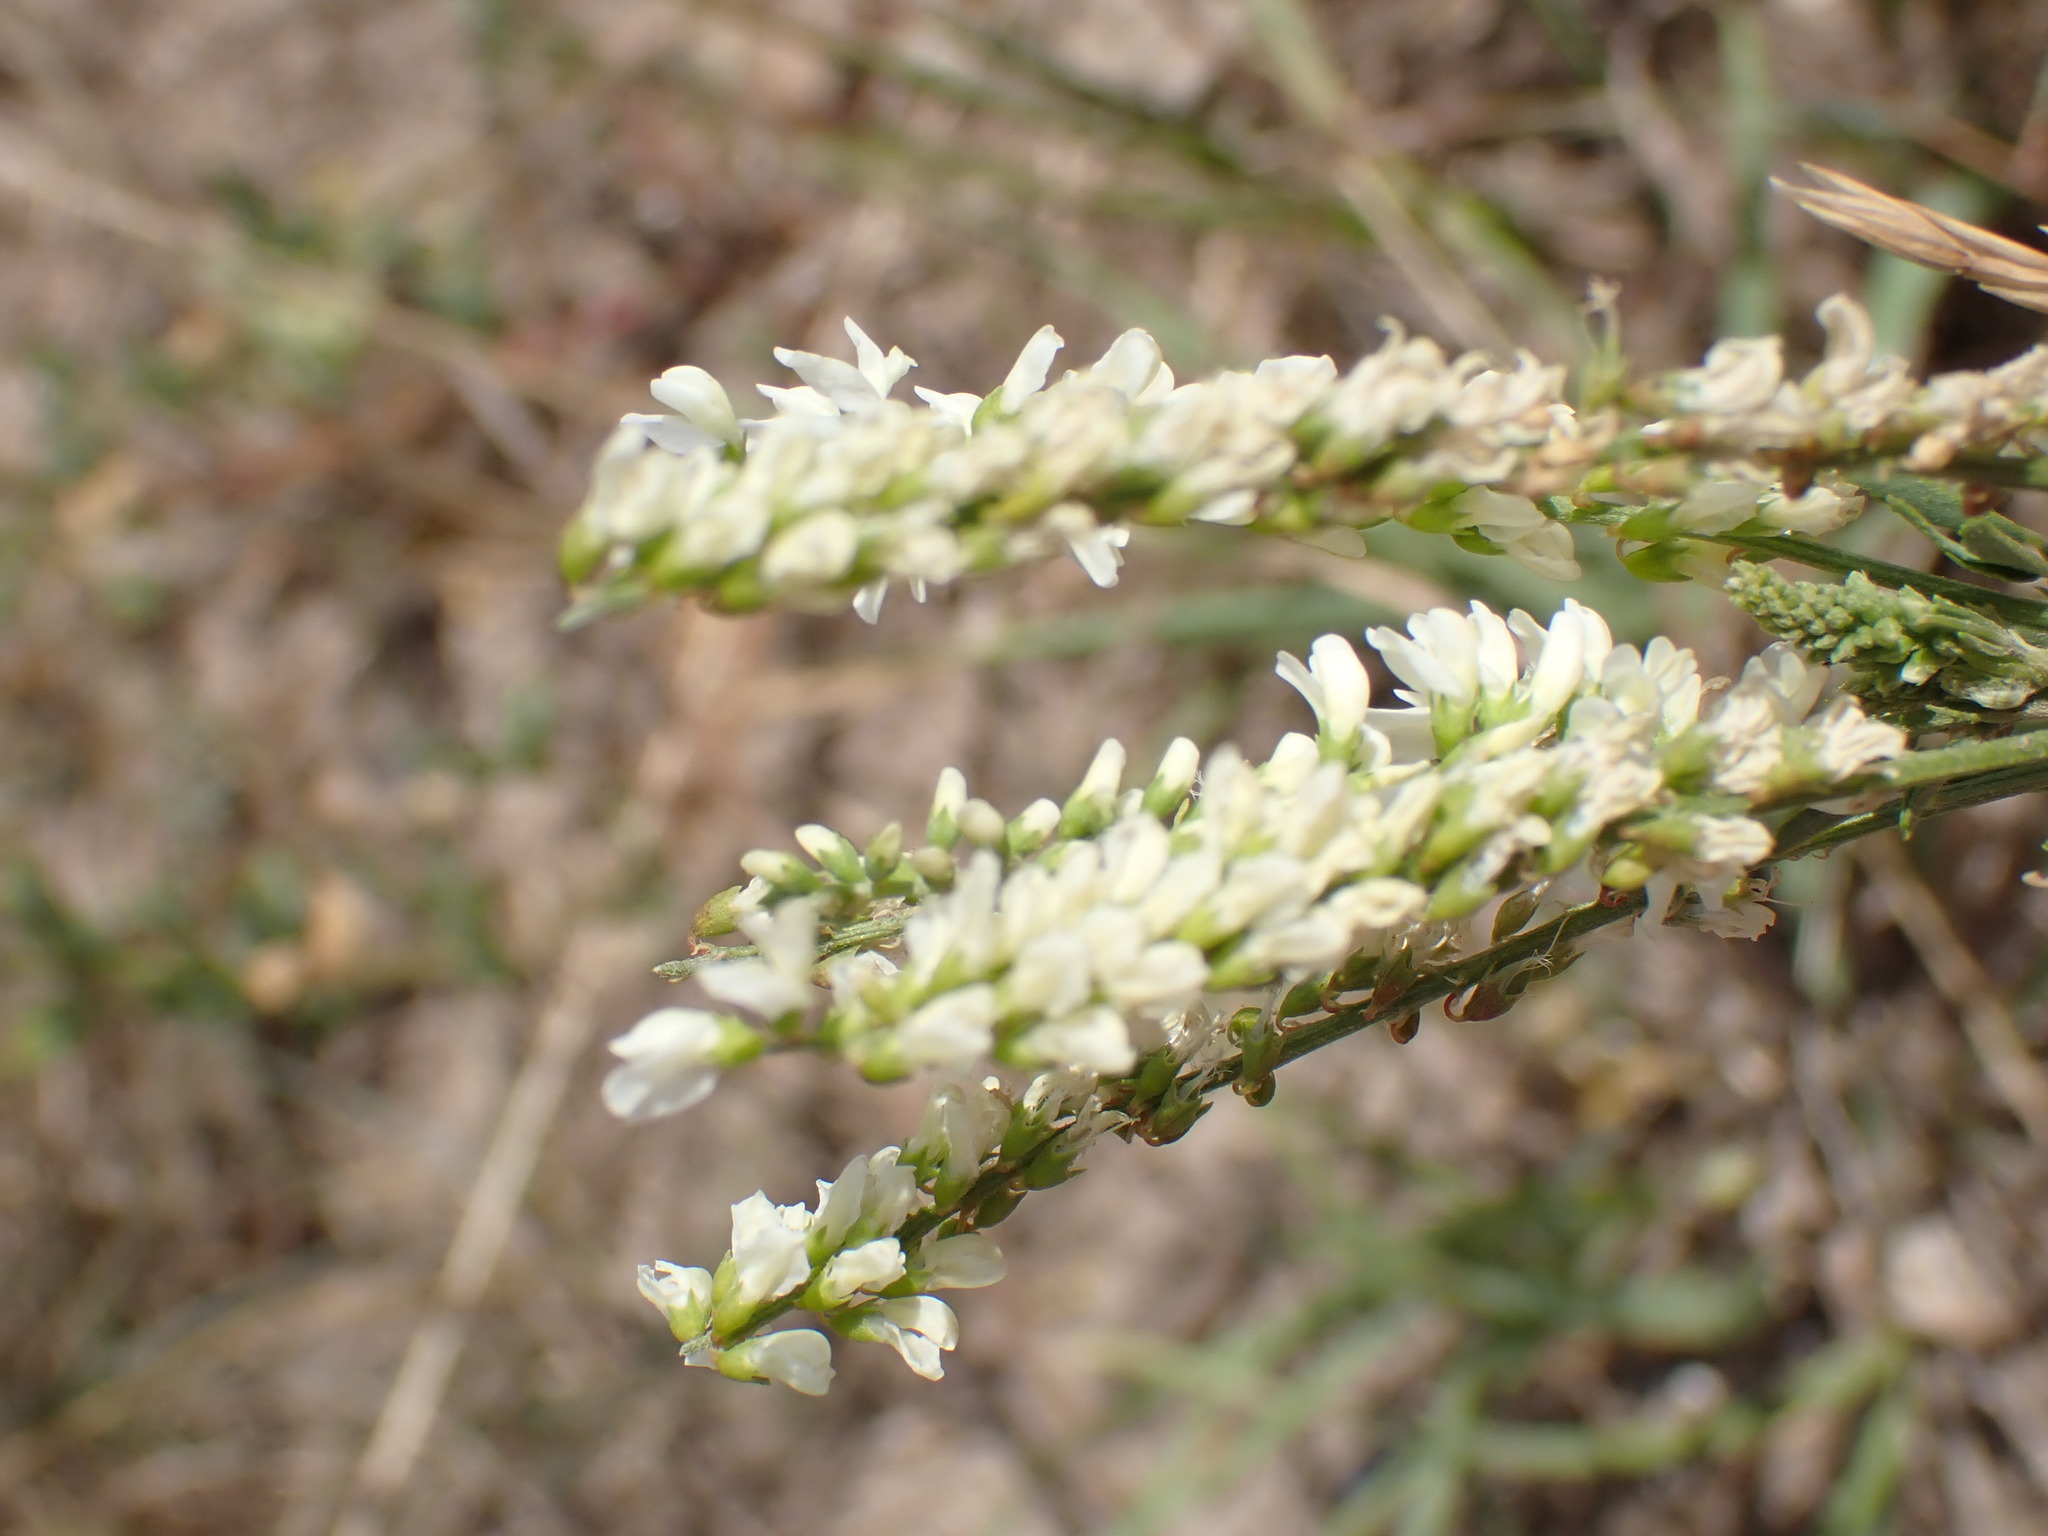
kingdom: Plantae
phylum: Tracheophyta
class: Magnoliopsida
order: Fabales
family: Fabaceae
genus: Melilotus
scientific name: Melilotus albus
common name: White melilot
